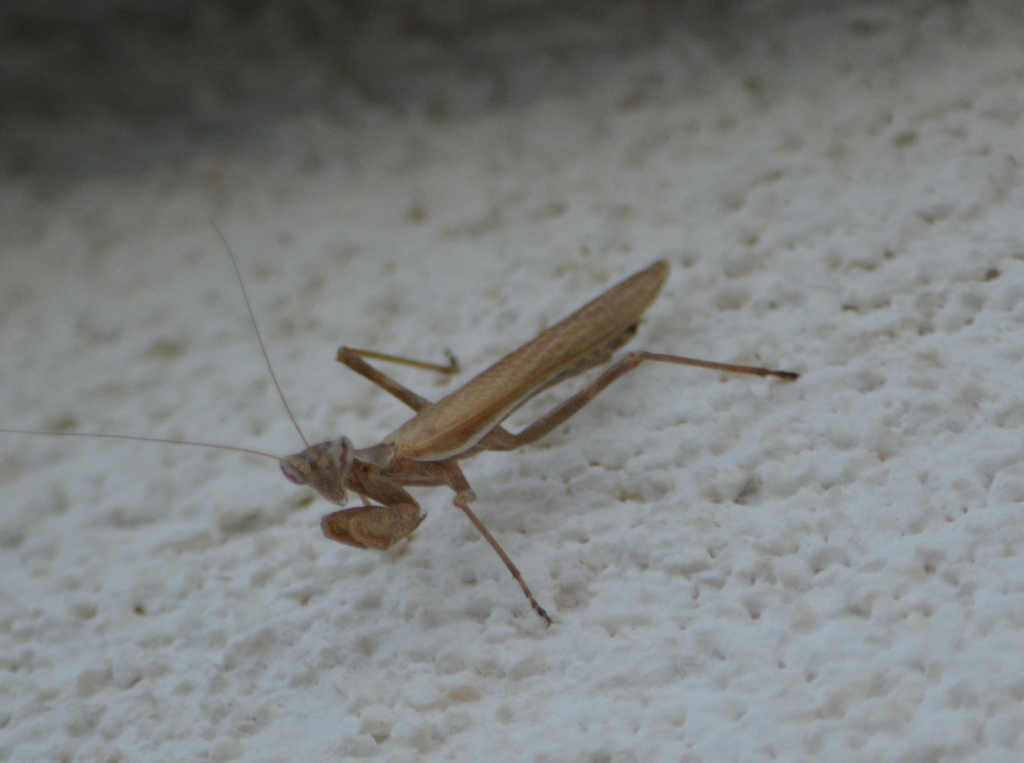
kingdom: Animalia
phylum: Arthropoda
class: Insecta
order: Mantodea
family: Amelidae
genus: Ameles
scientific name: Ameles spallanzania
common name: European dwarf mantis
